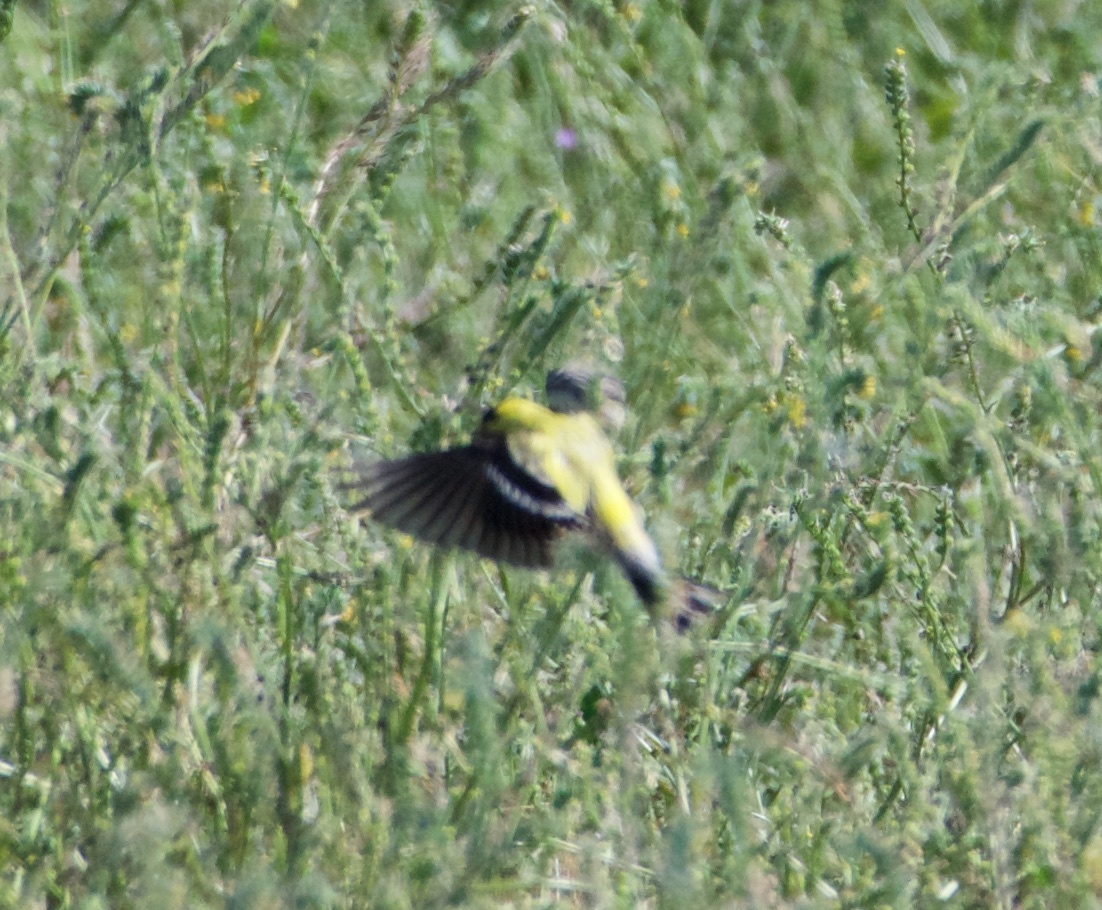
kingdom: Animalia
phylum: Chordata
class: Aves
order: Passeriformes
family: Fringillidae
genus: Spinus
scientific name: Spinus tristis
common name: American goldfinch
